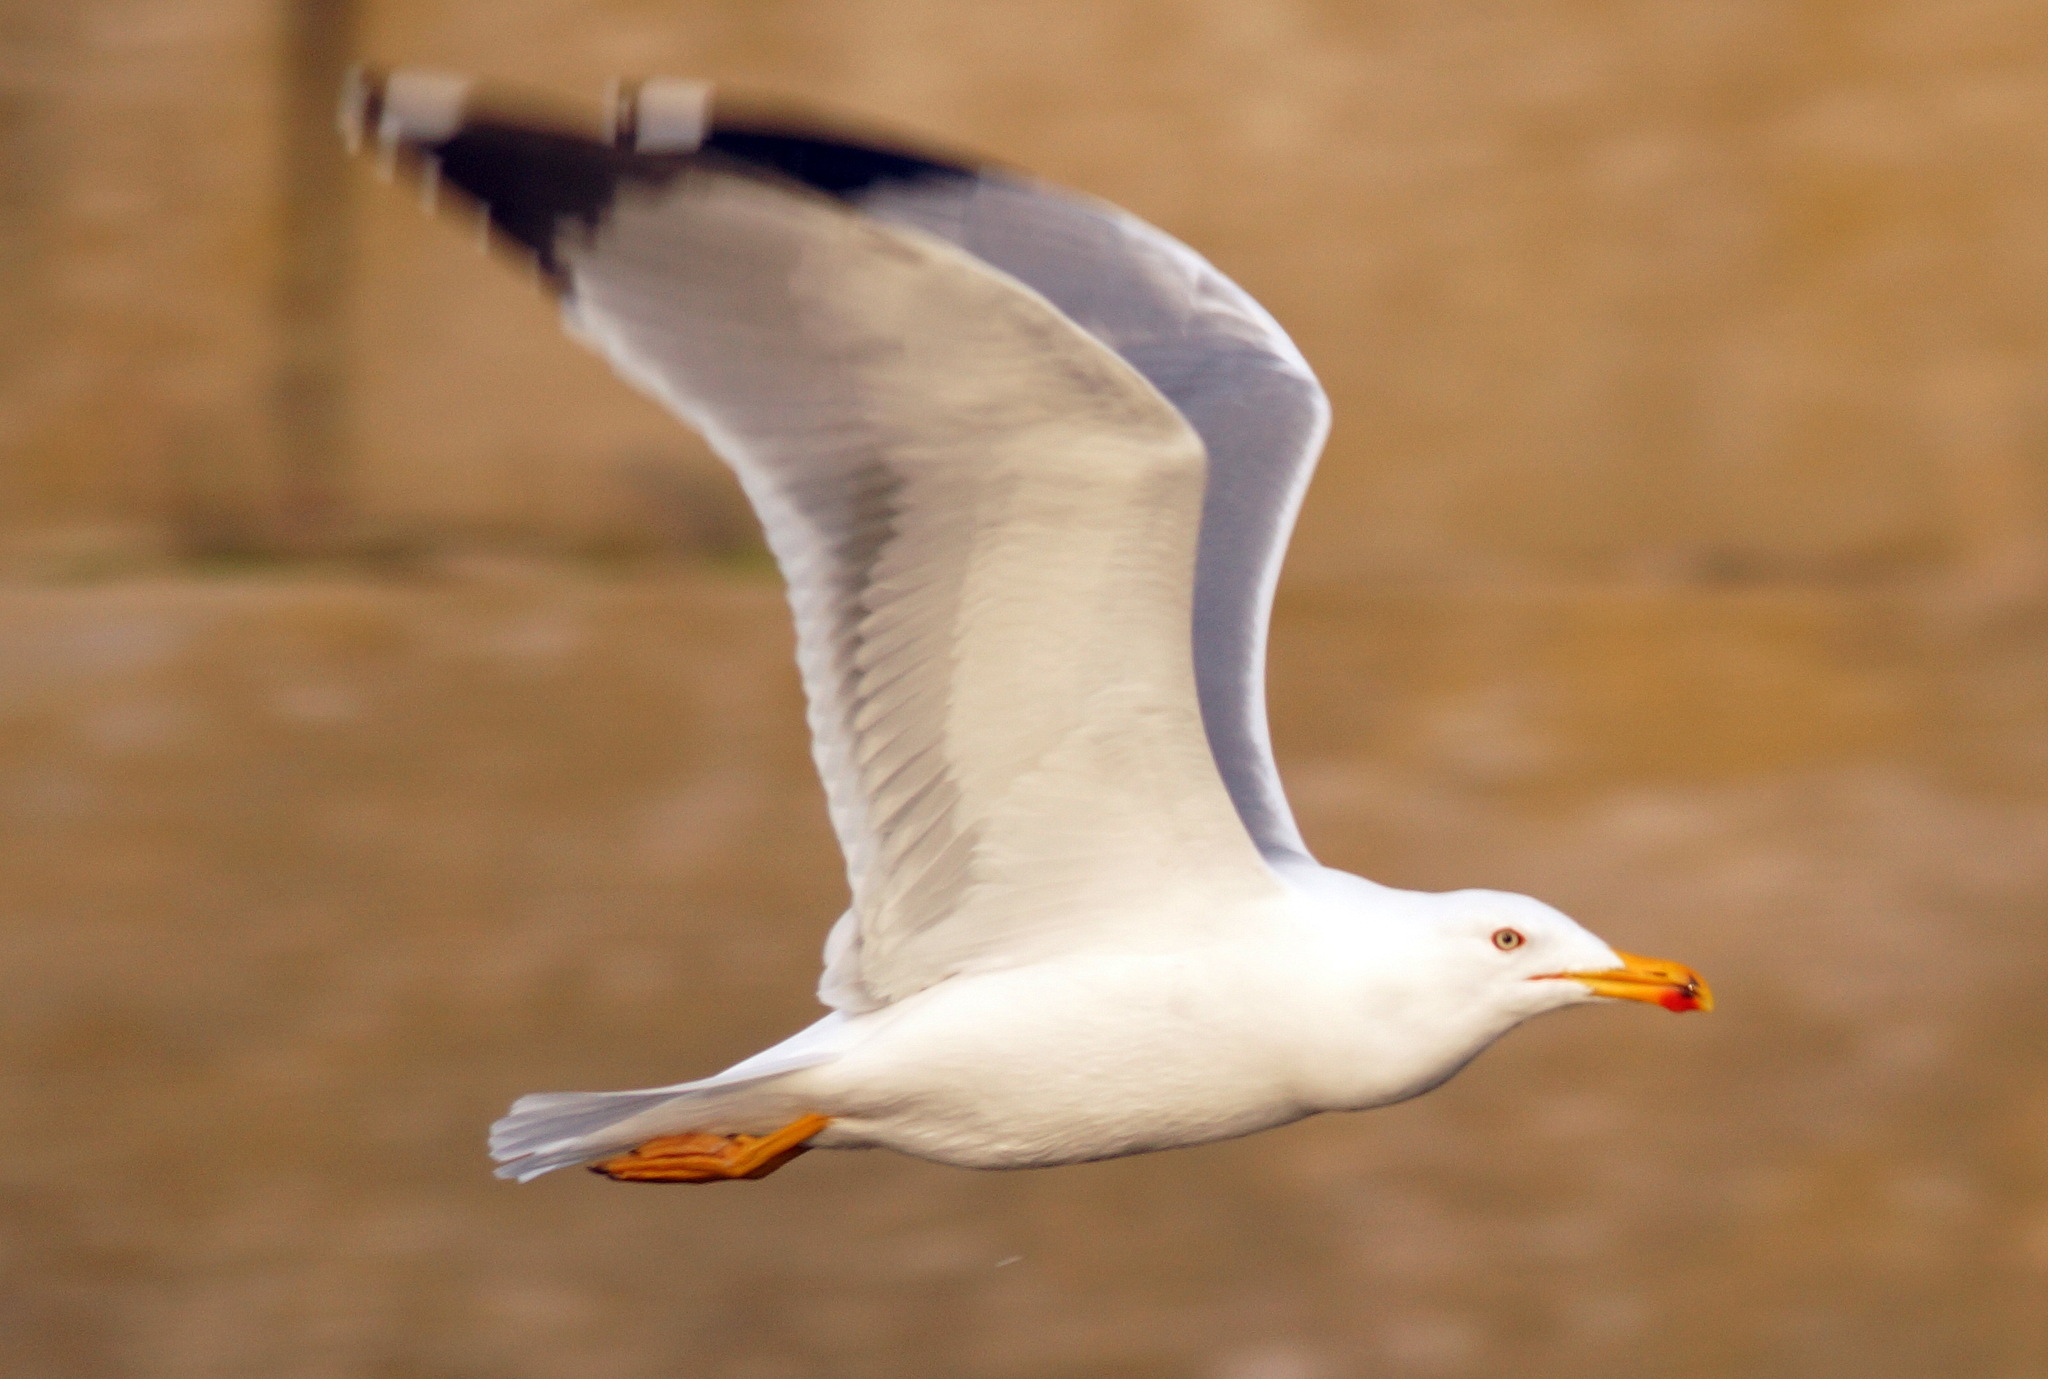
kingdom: Animalia
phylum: Chordata
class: Aves
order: Charadriiformes
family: Laridae
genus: Larus
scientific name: Larus michahellis
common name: Yellow-legged gull
